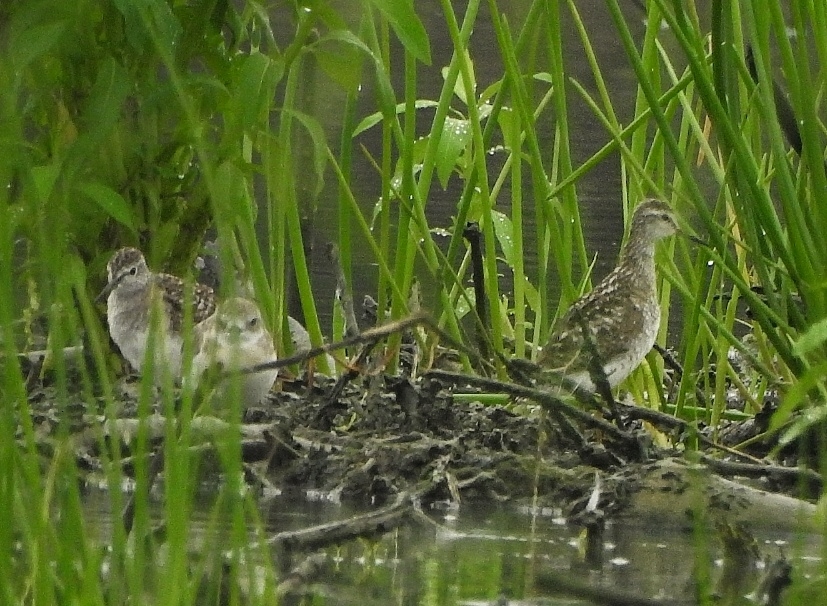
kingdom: Animalia
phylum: Chordata
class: Aves
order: Charadriiformes
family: Scolopacidae
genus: Tringa
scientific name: Tringa glareola
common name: Wood sandpiper
